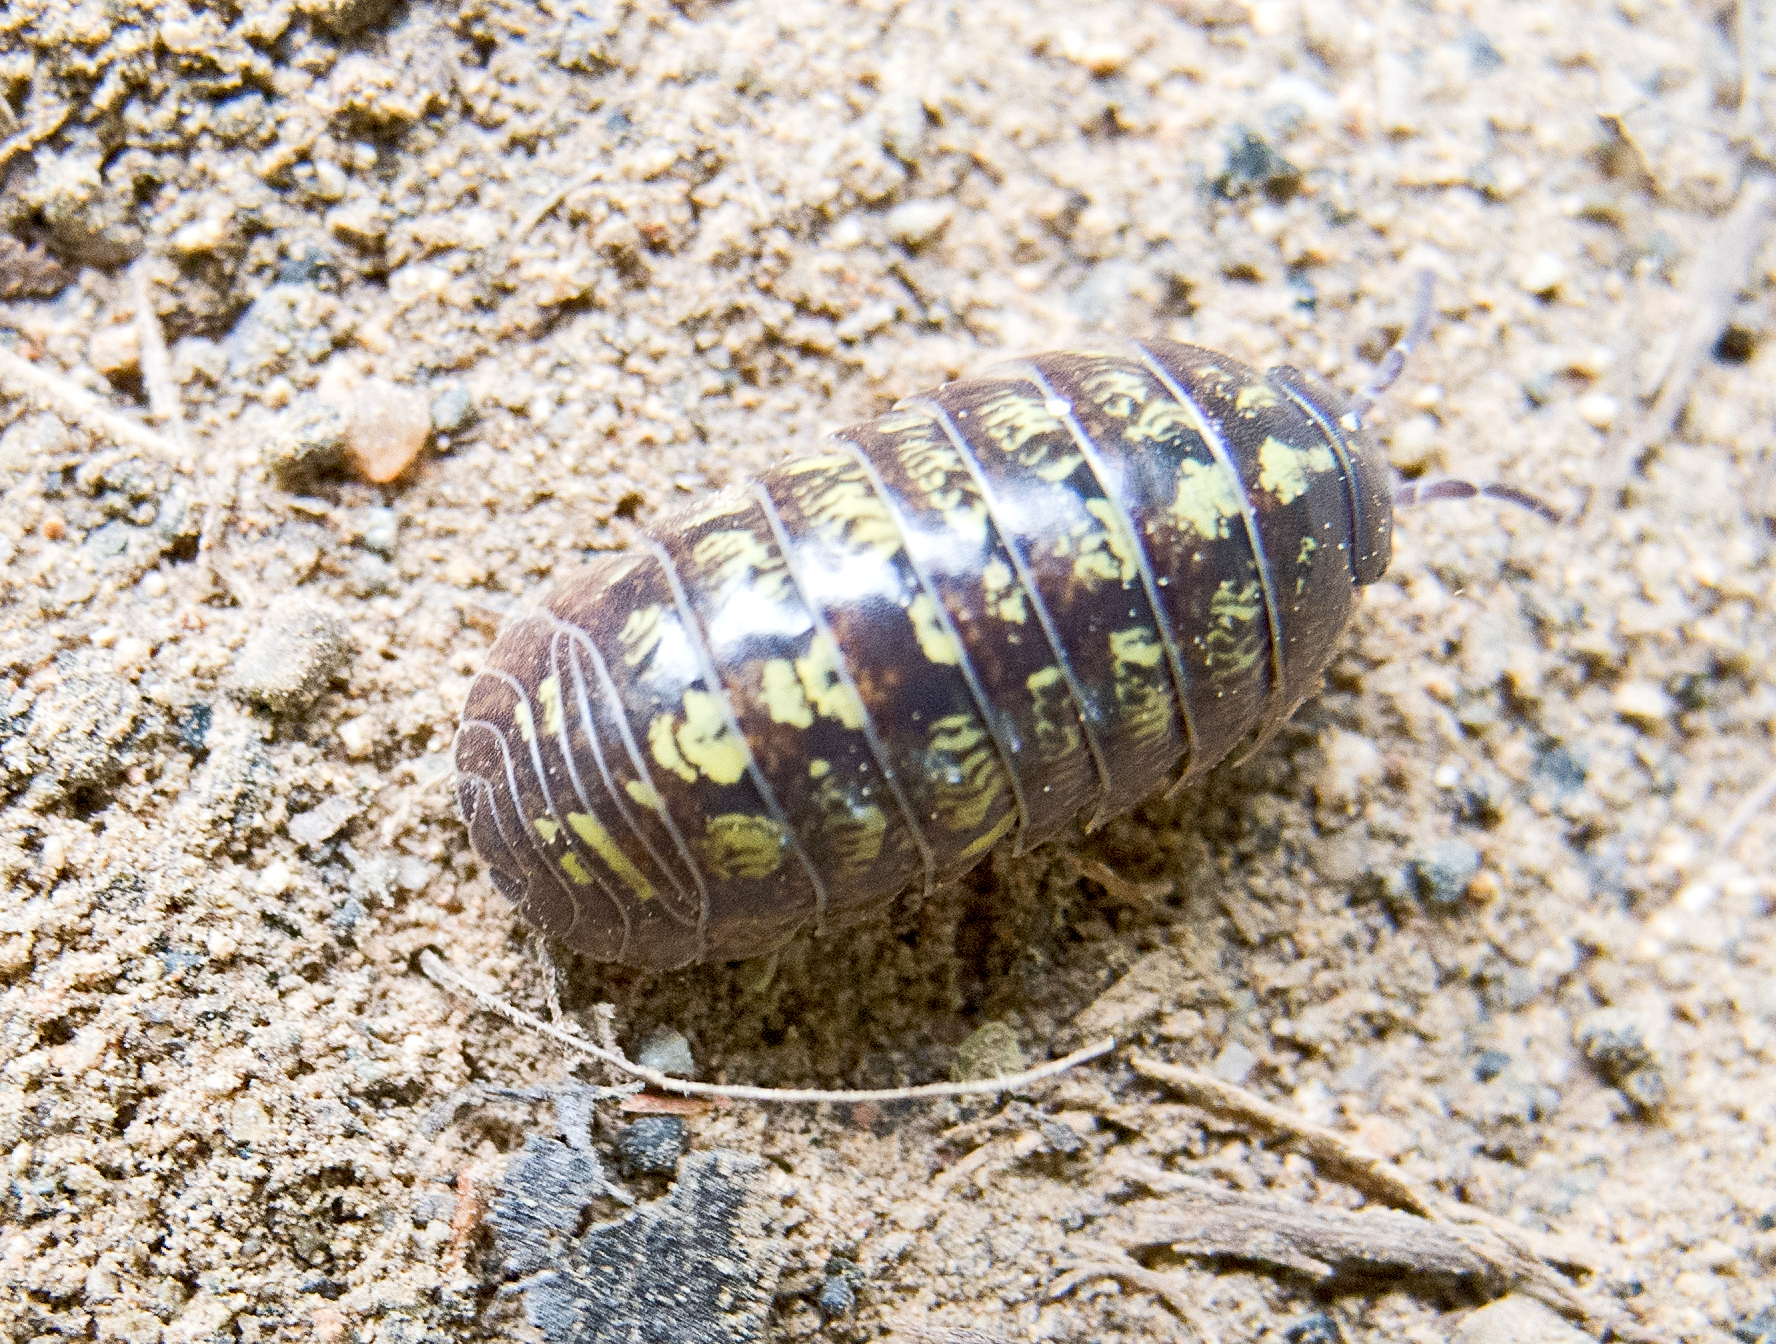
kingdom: Animalia
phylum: Arthropoda
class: Malacostraca
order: Isopoda
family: Armadillidiidae
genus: Armadillidium
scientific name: Armadillidium vulgare
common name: Common pill woodlouse
